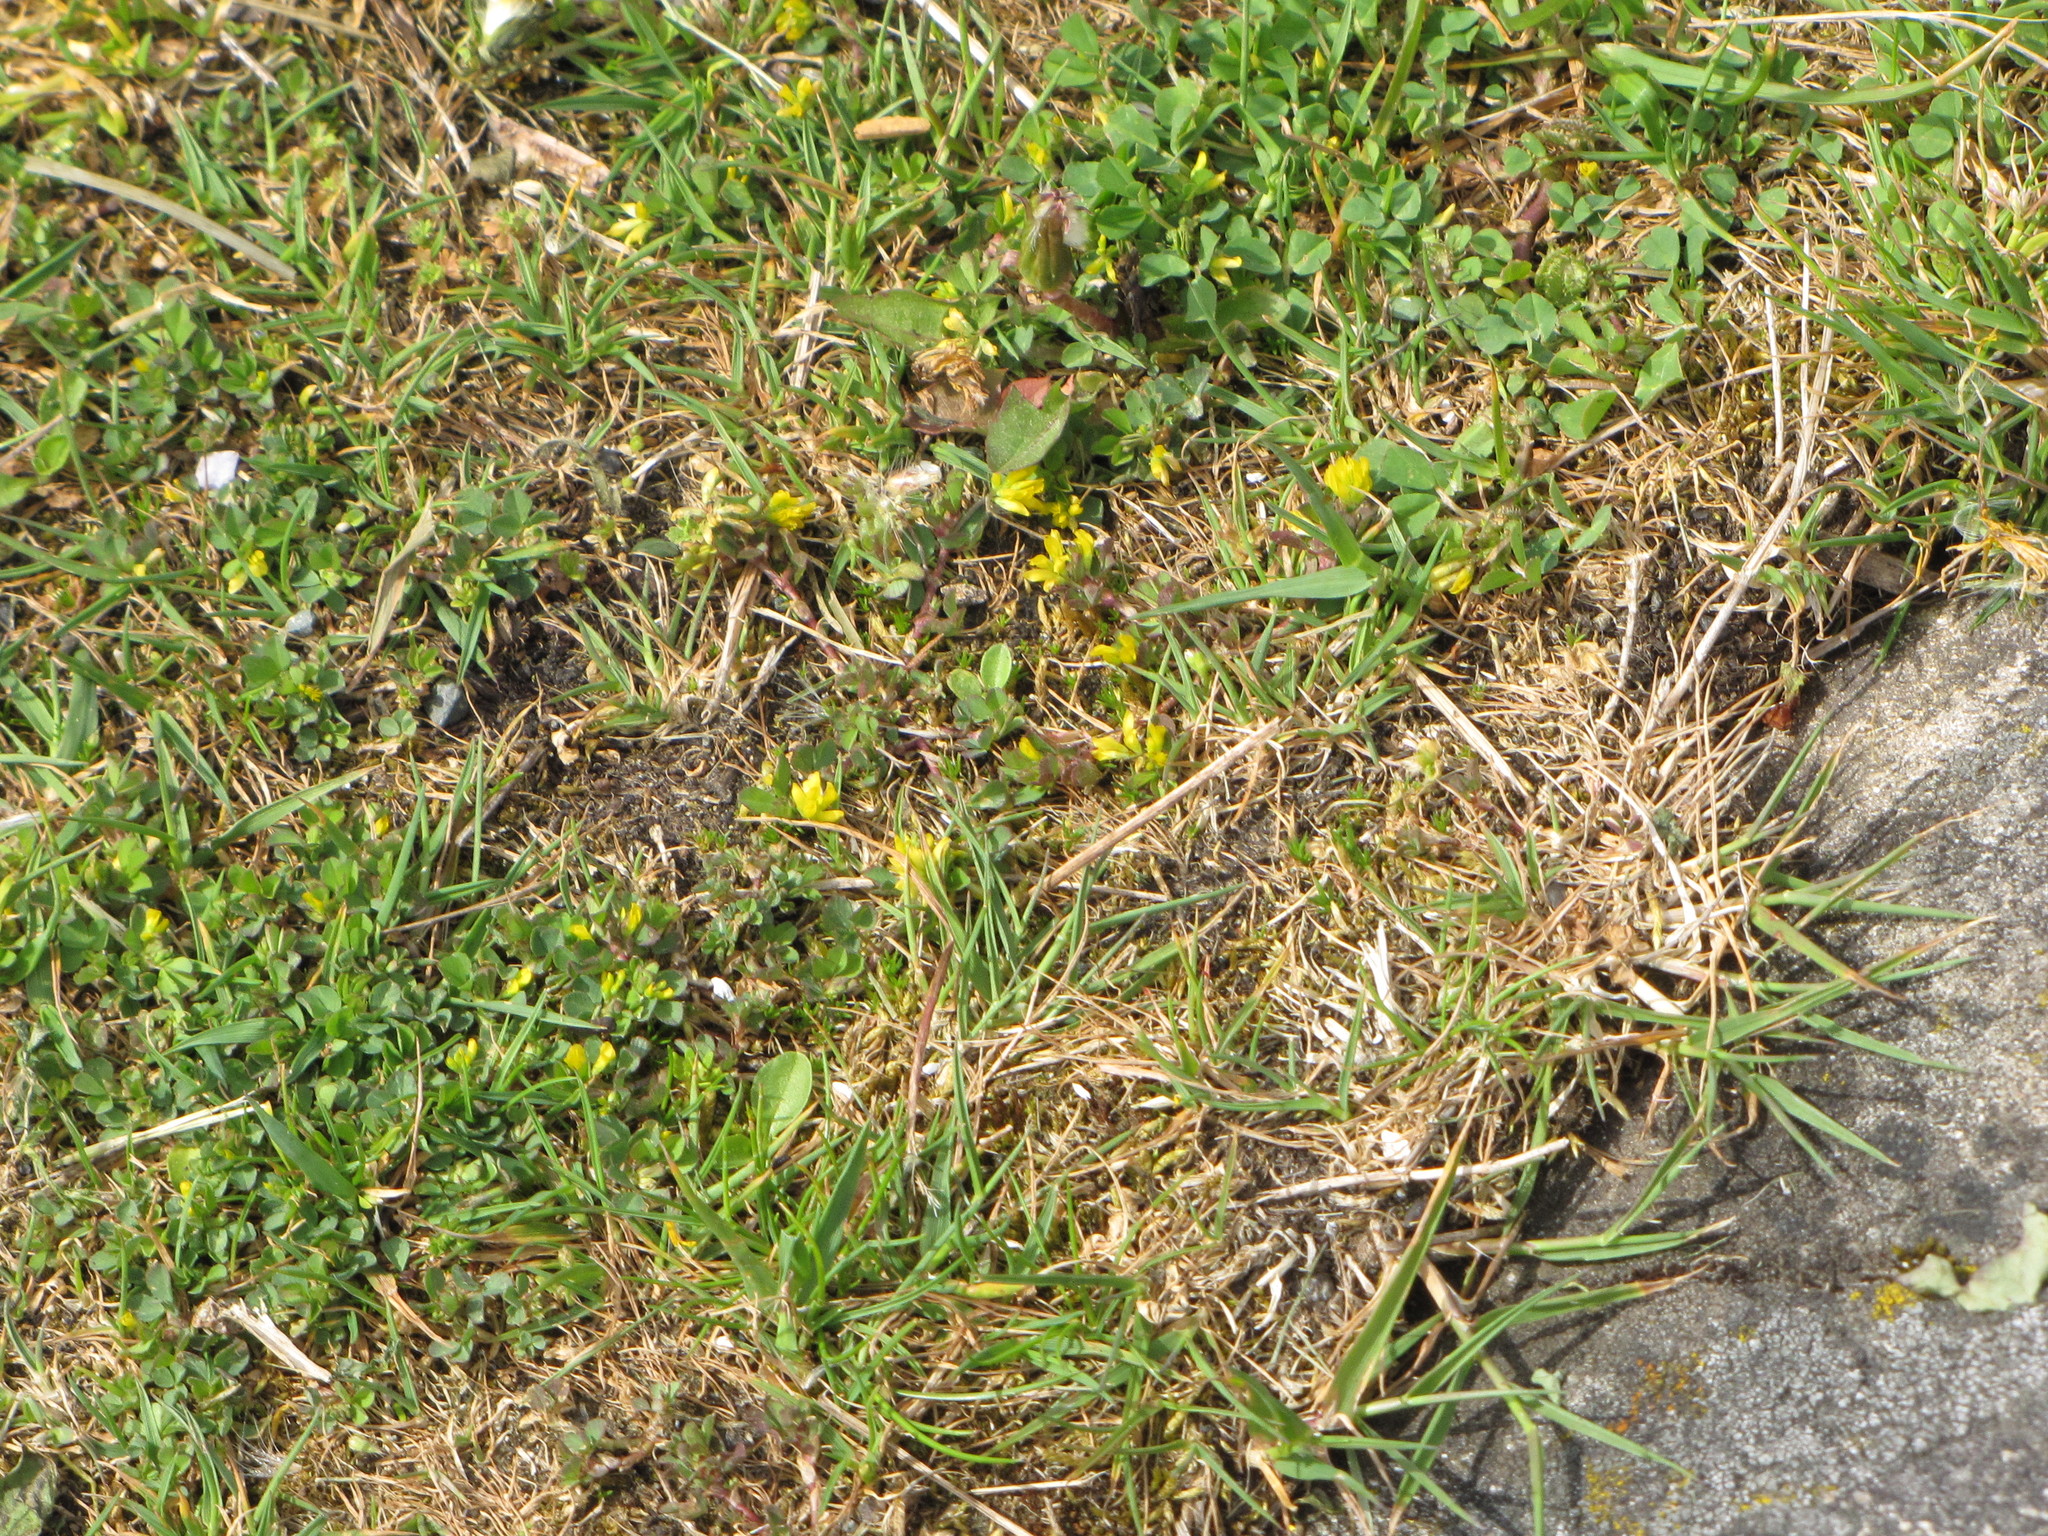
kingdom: Plantae
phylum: Tracheophyta
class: Magnoliopsida
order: Fabales
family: Fabaceae
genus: Trifolium
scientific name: Trifolium dubium
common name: Suckling clover
